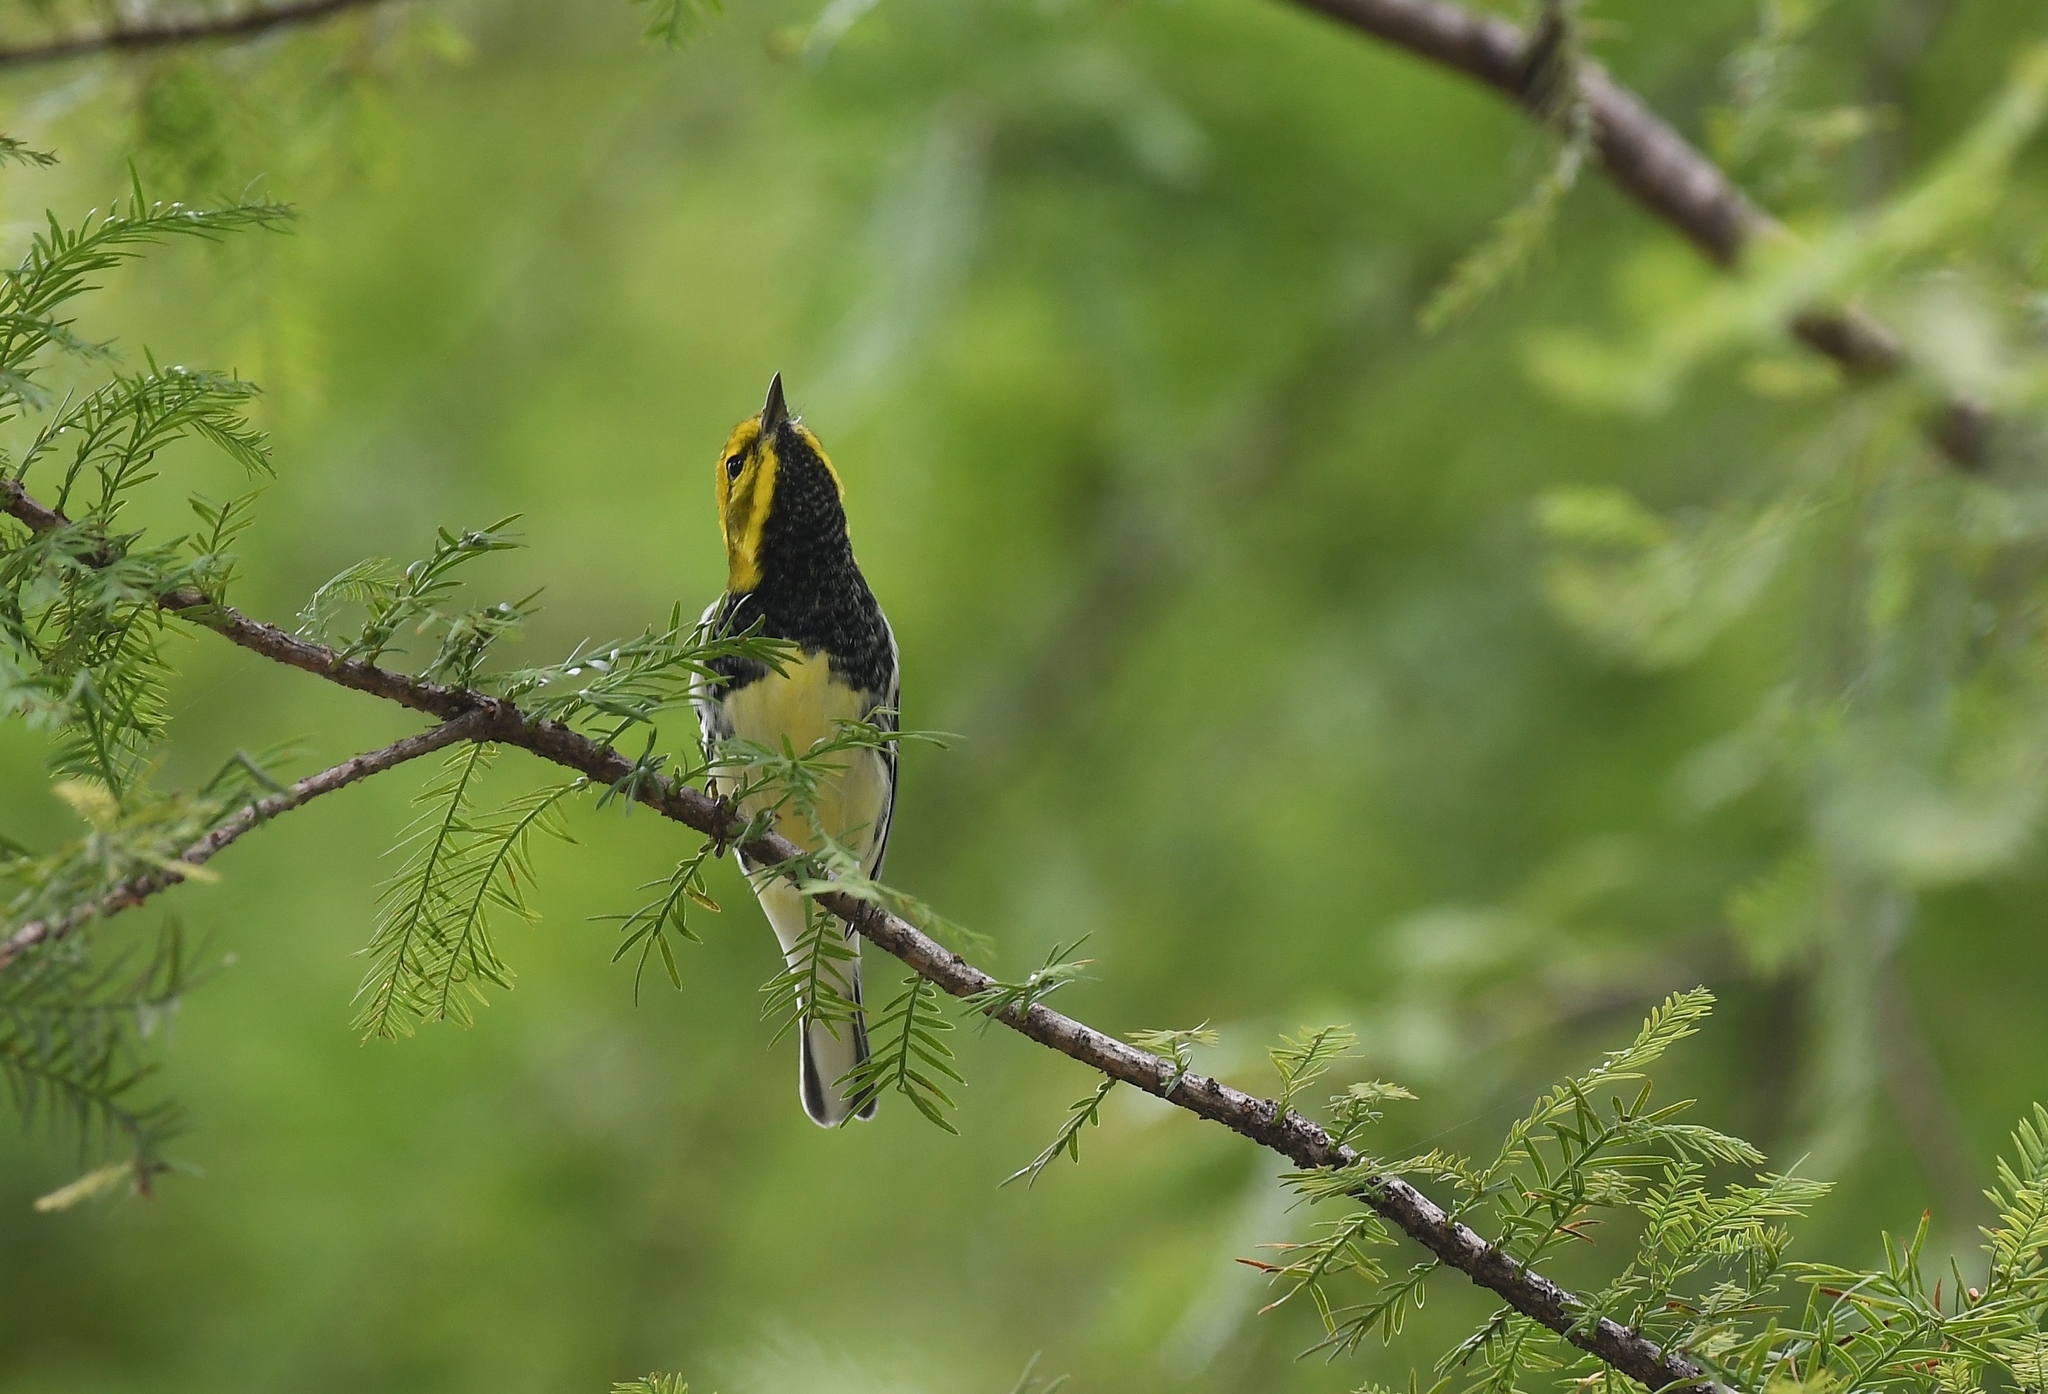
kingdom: Animalia
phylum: Chordata
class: Aves
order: Passeriformes
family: Parulidae
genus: Setophaga
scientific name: Setophaga virens
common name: Black-throated green warbler
